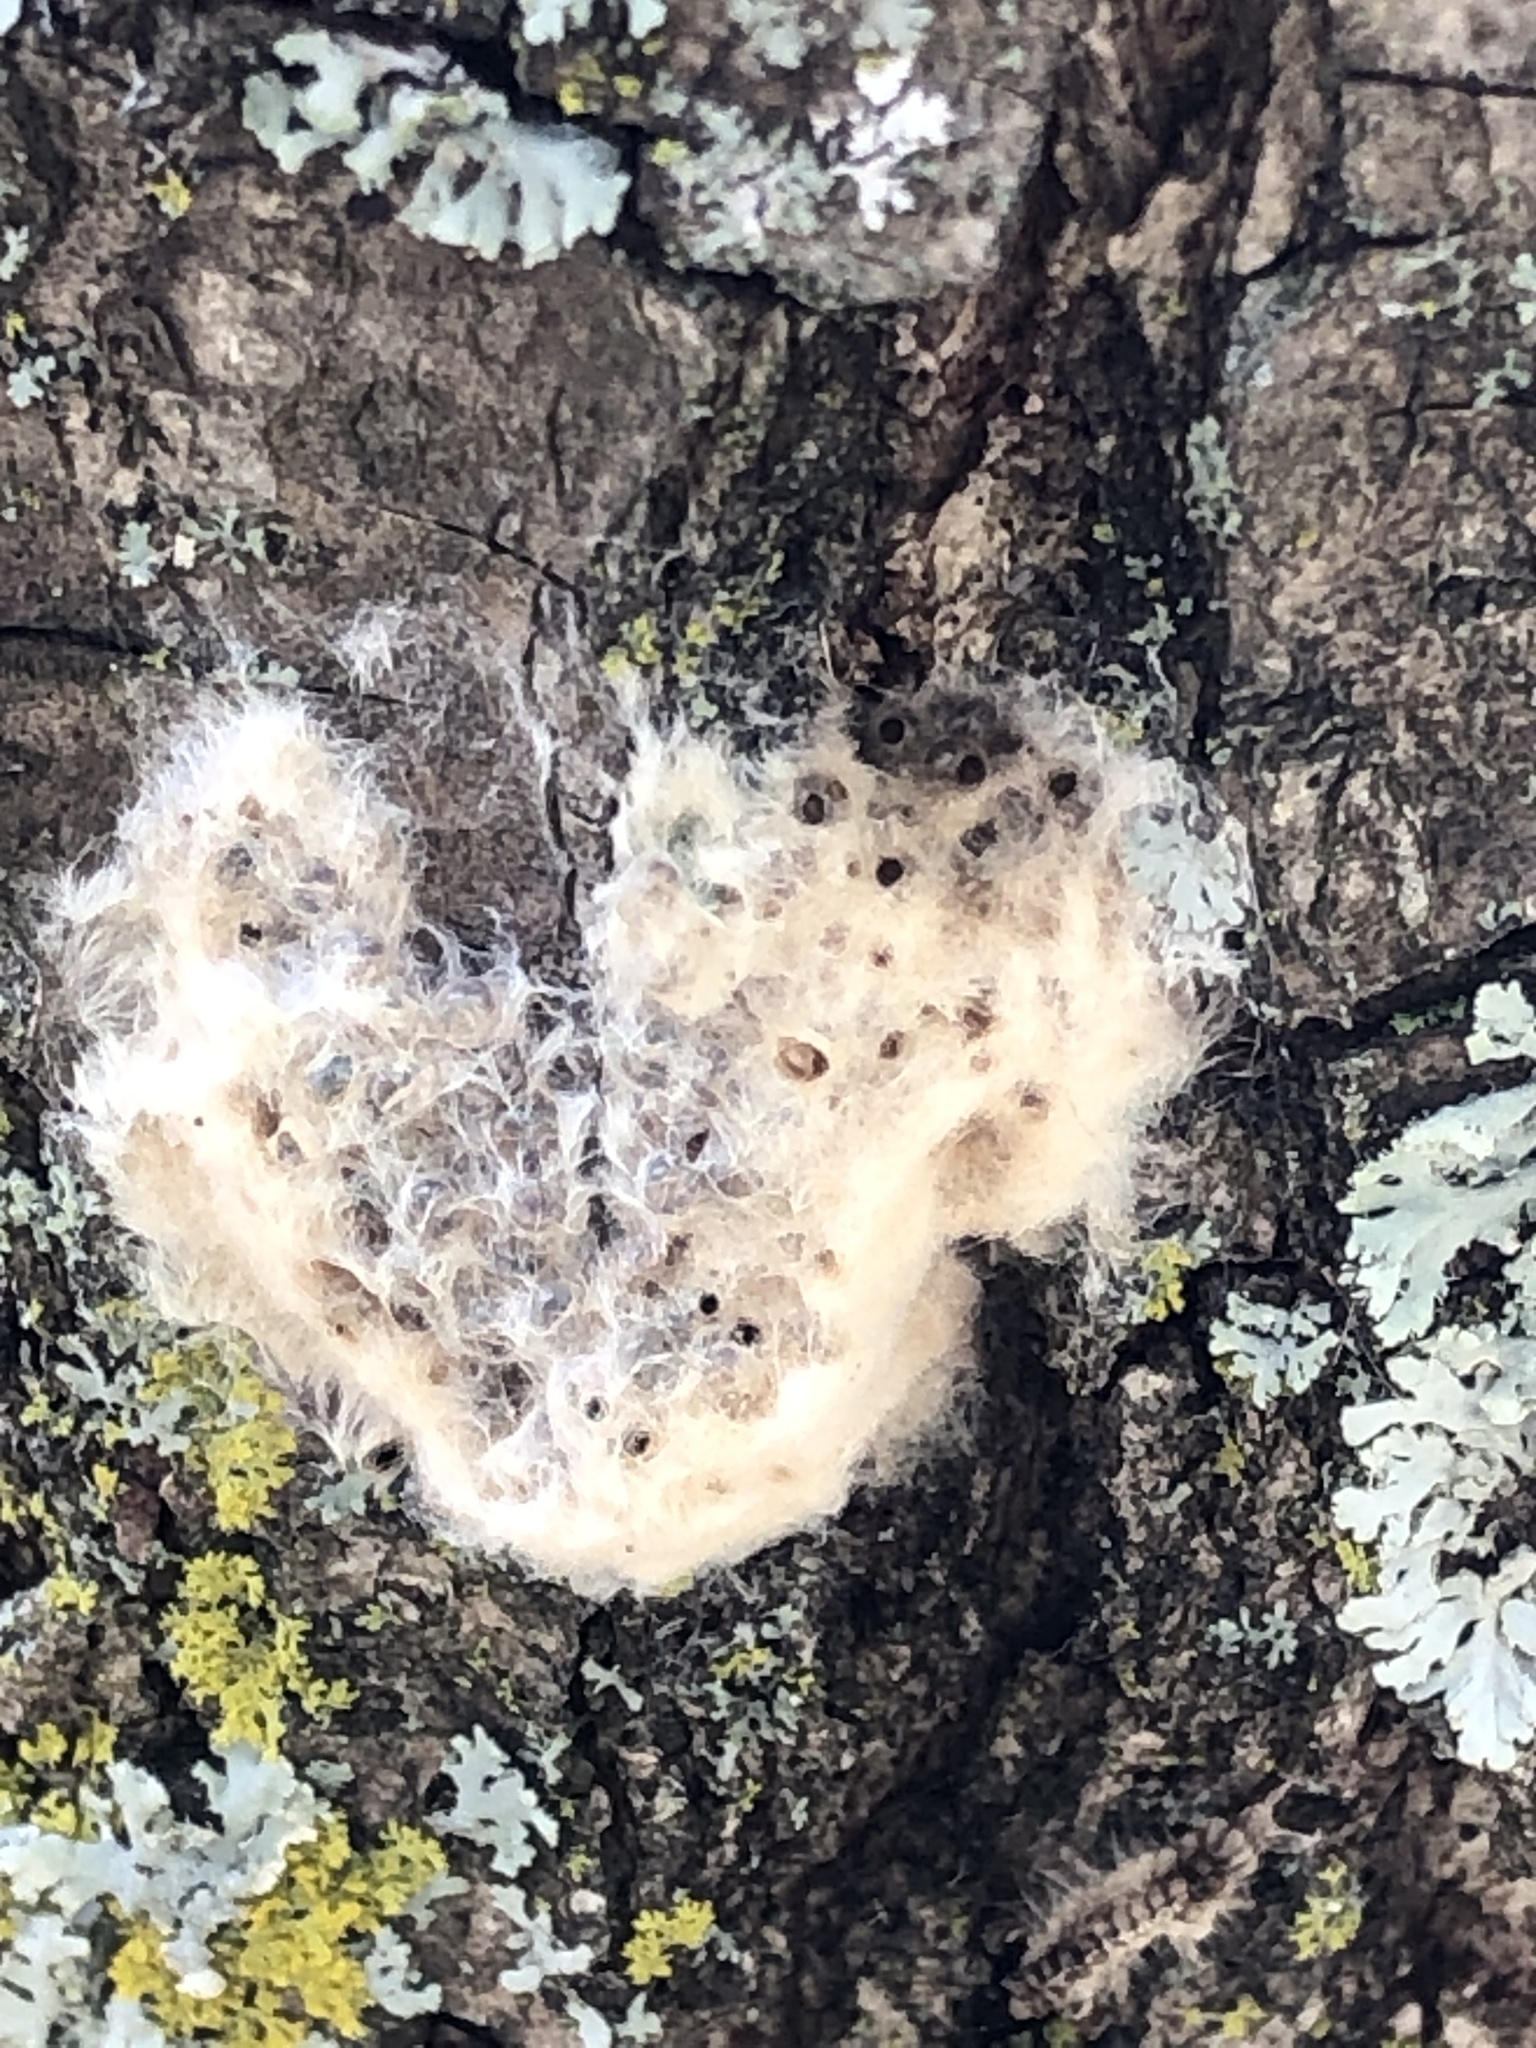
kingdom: Animalia
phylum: Arthropoda
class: Insecta
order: Lepidoptera
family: Erebidae
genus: Lymantria
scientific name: Lymantria dispar
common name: Gypsy moth
